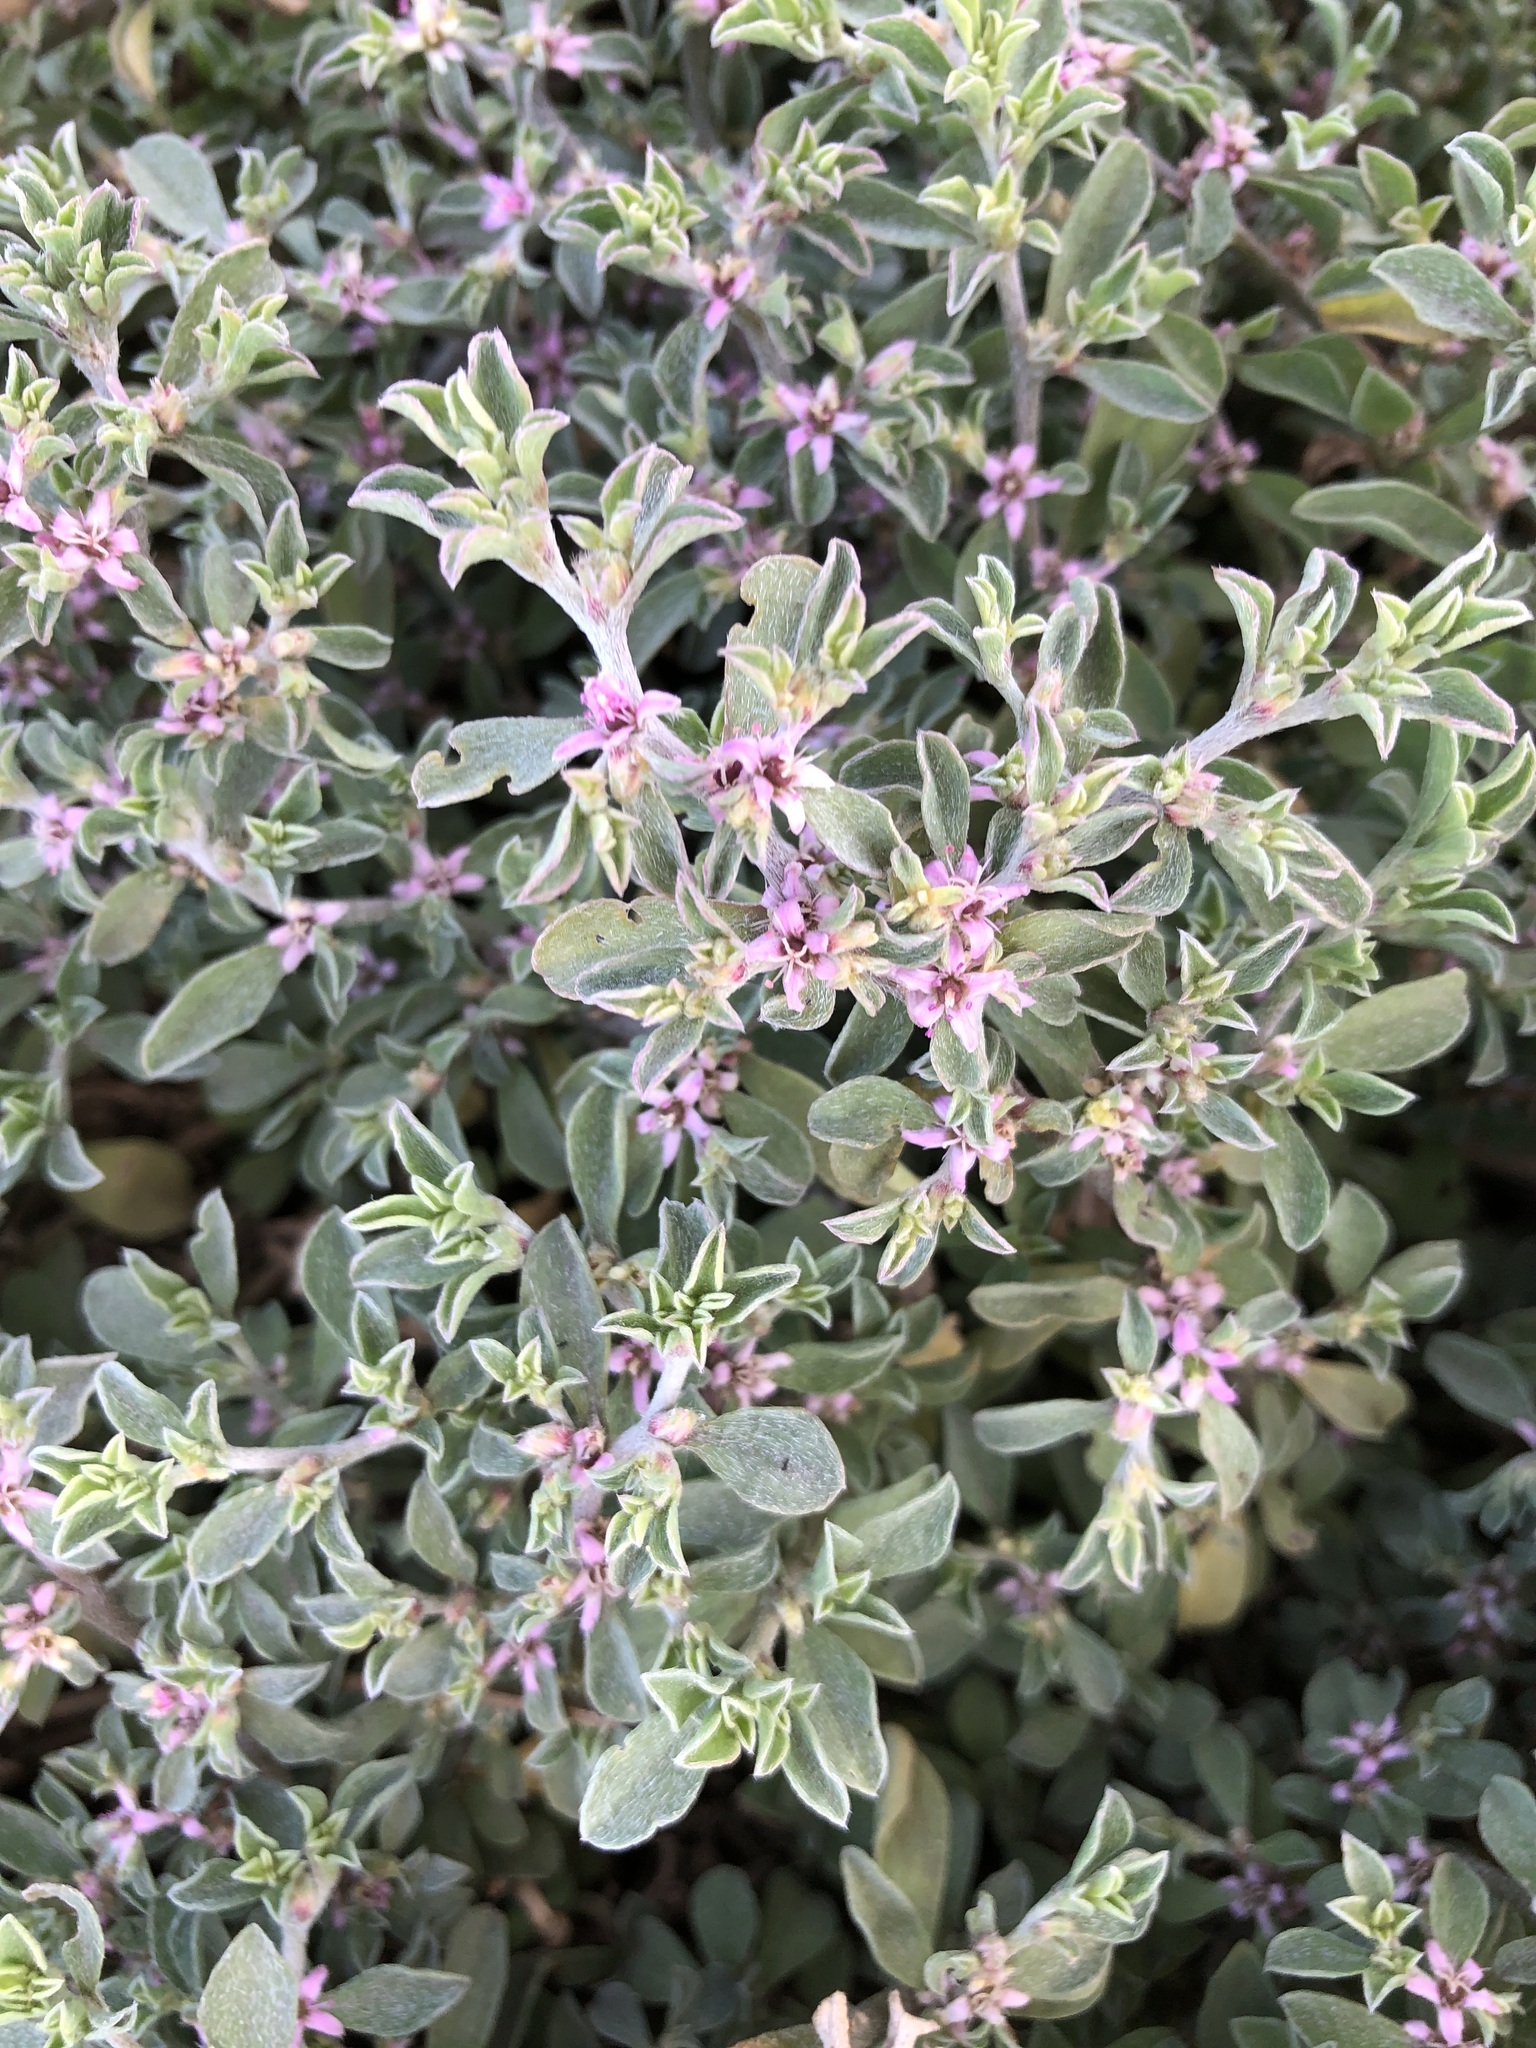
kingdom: Plantae
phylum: Tracheophyta
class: Magnoliopsida
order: Caryophyllales
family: Aizoaceae
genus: Aizoon
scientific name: Aizoon pubescens
